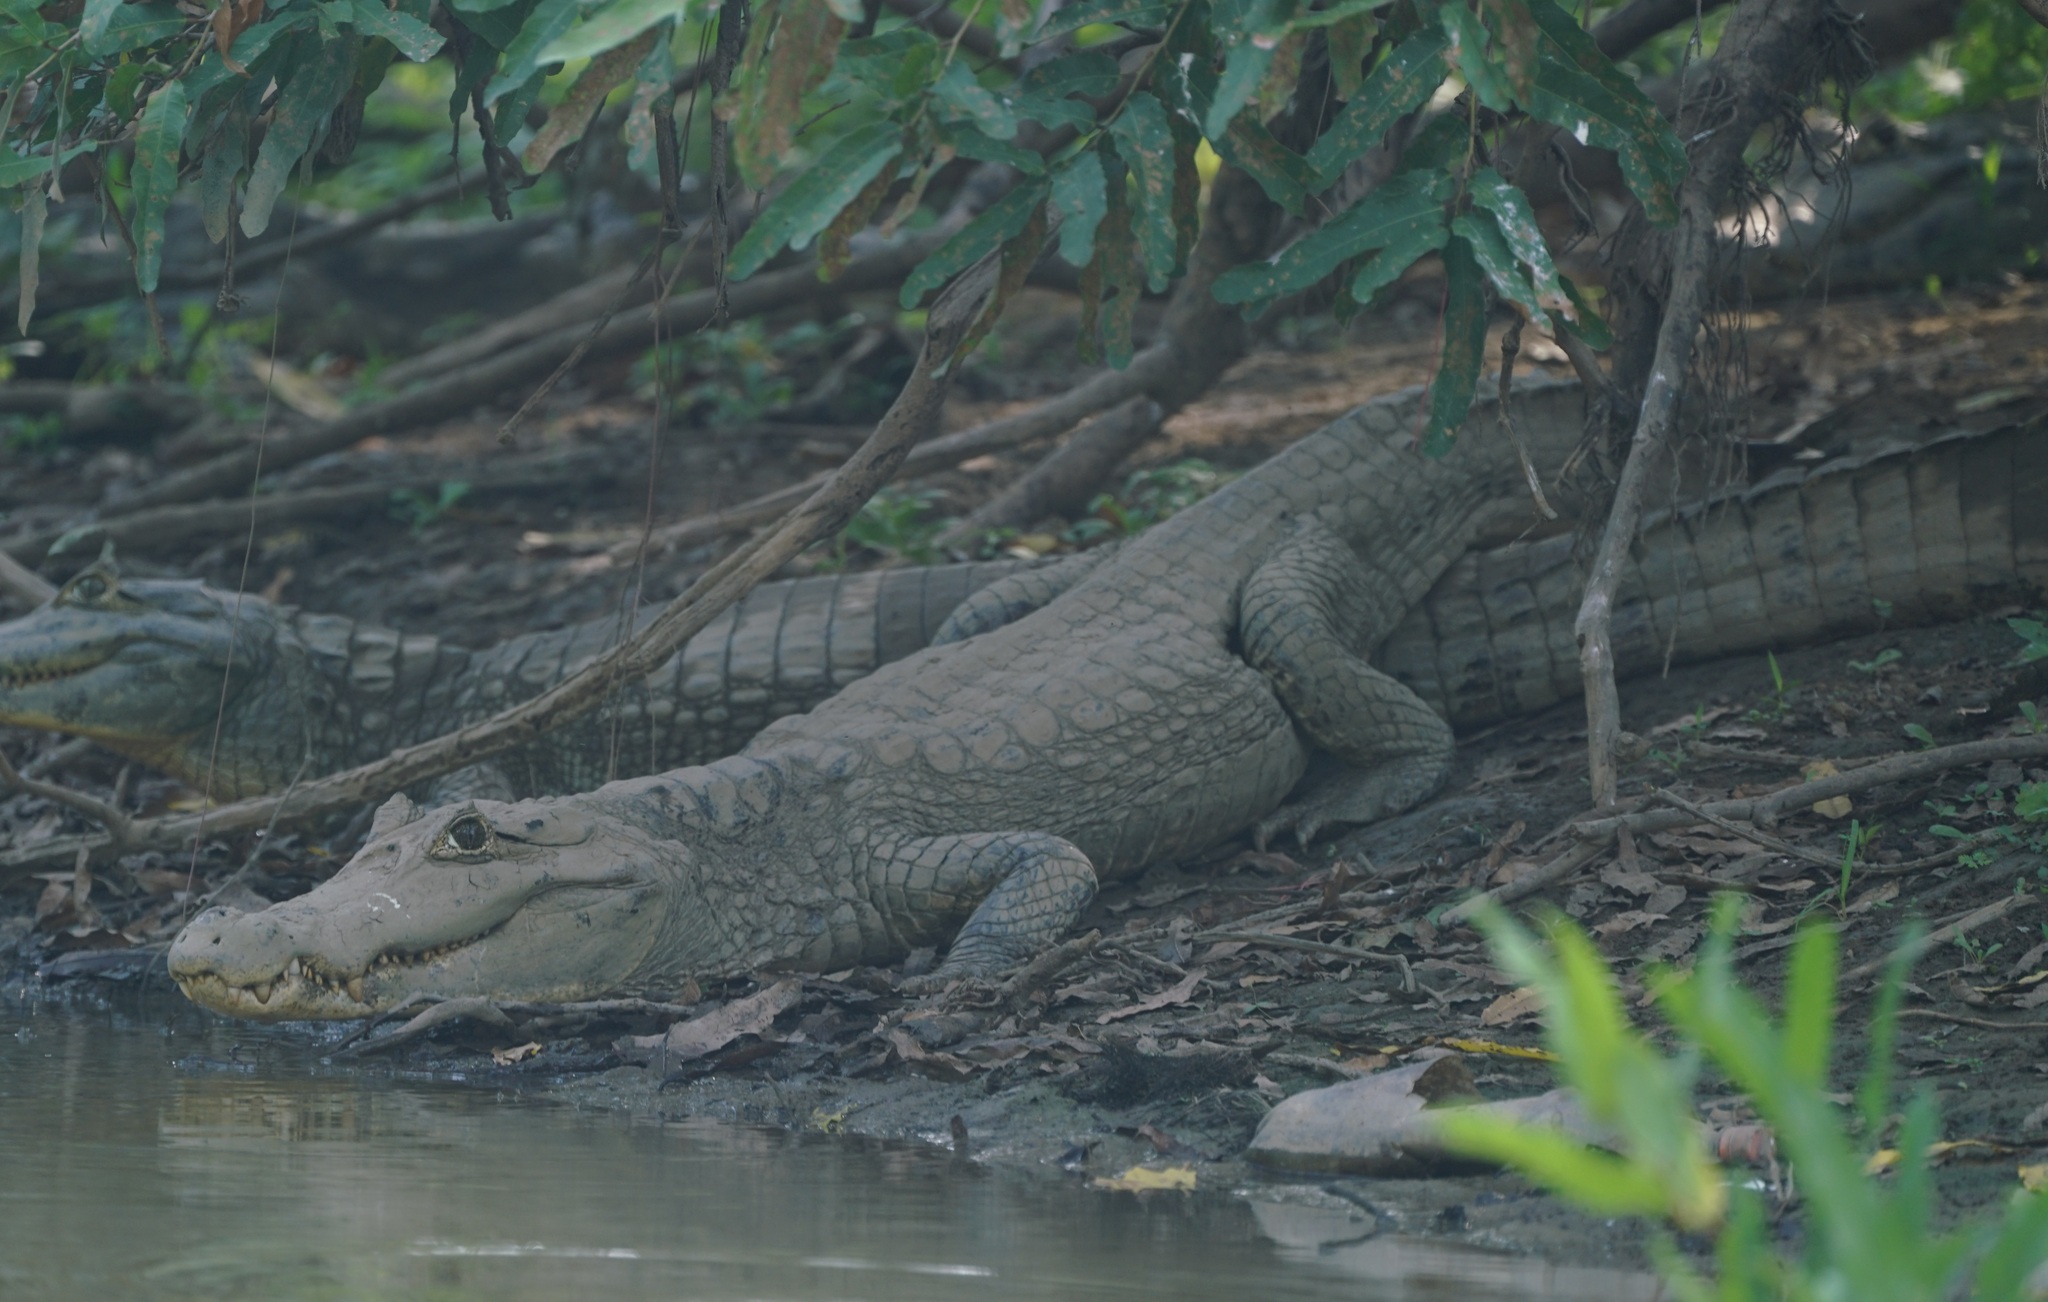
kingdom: Animalia
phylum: Chordata
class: Crocodylia
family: Alligatoridae
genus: Caiman
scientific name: Caiman crocodilus
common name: Common caiman
